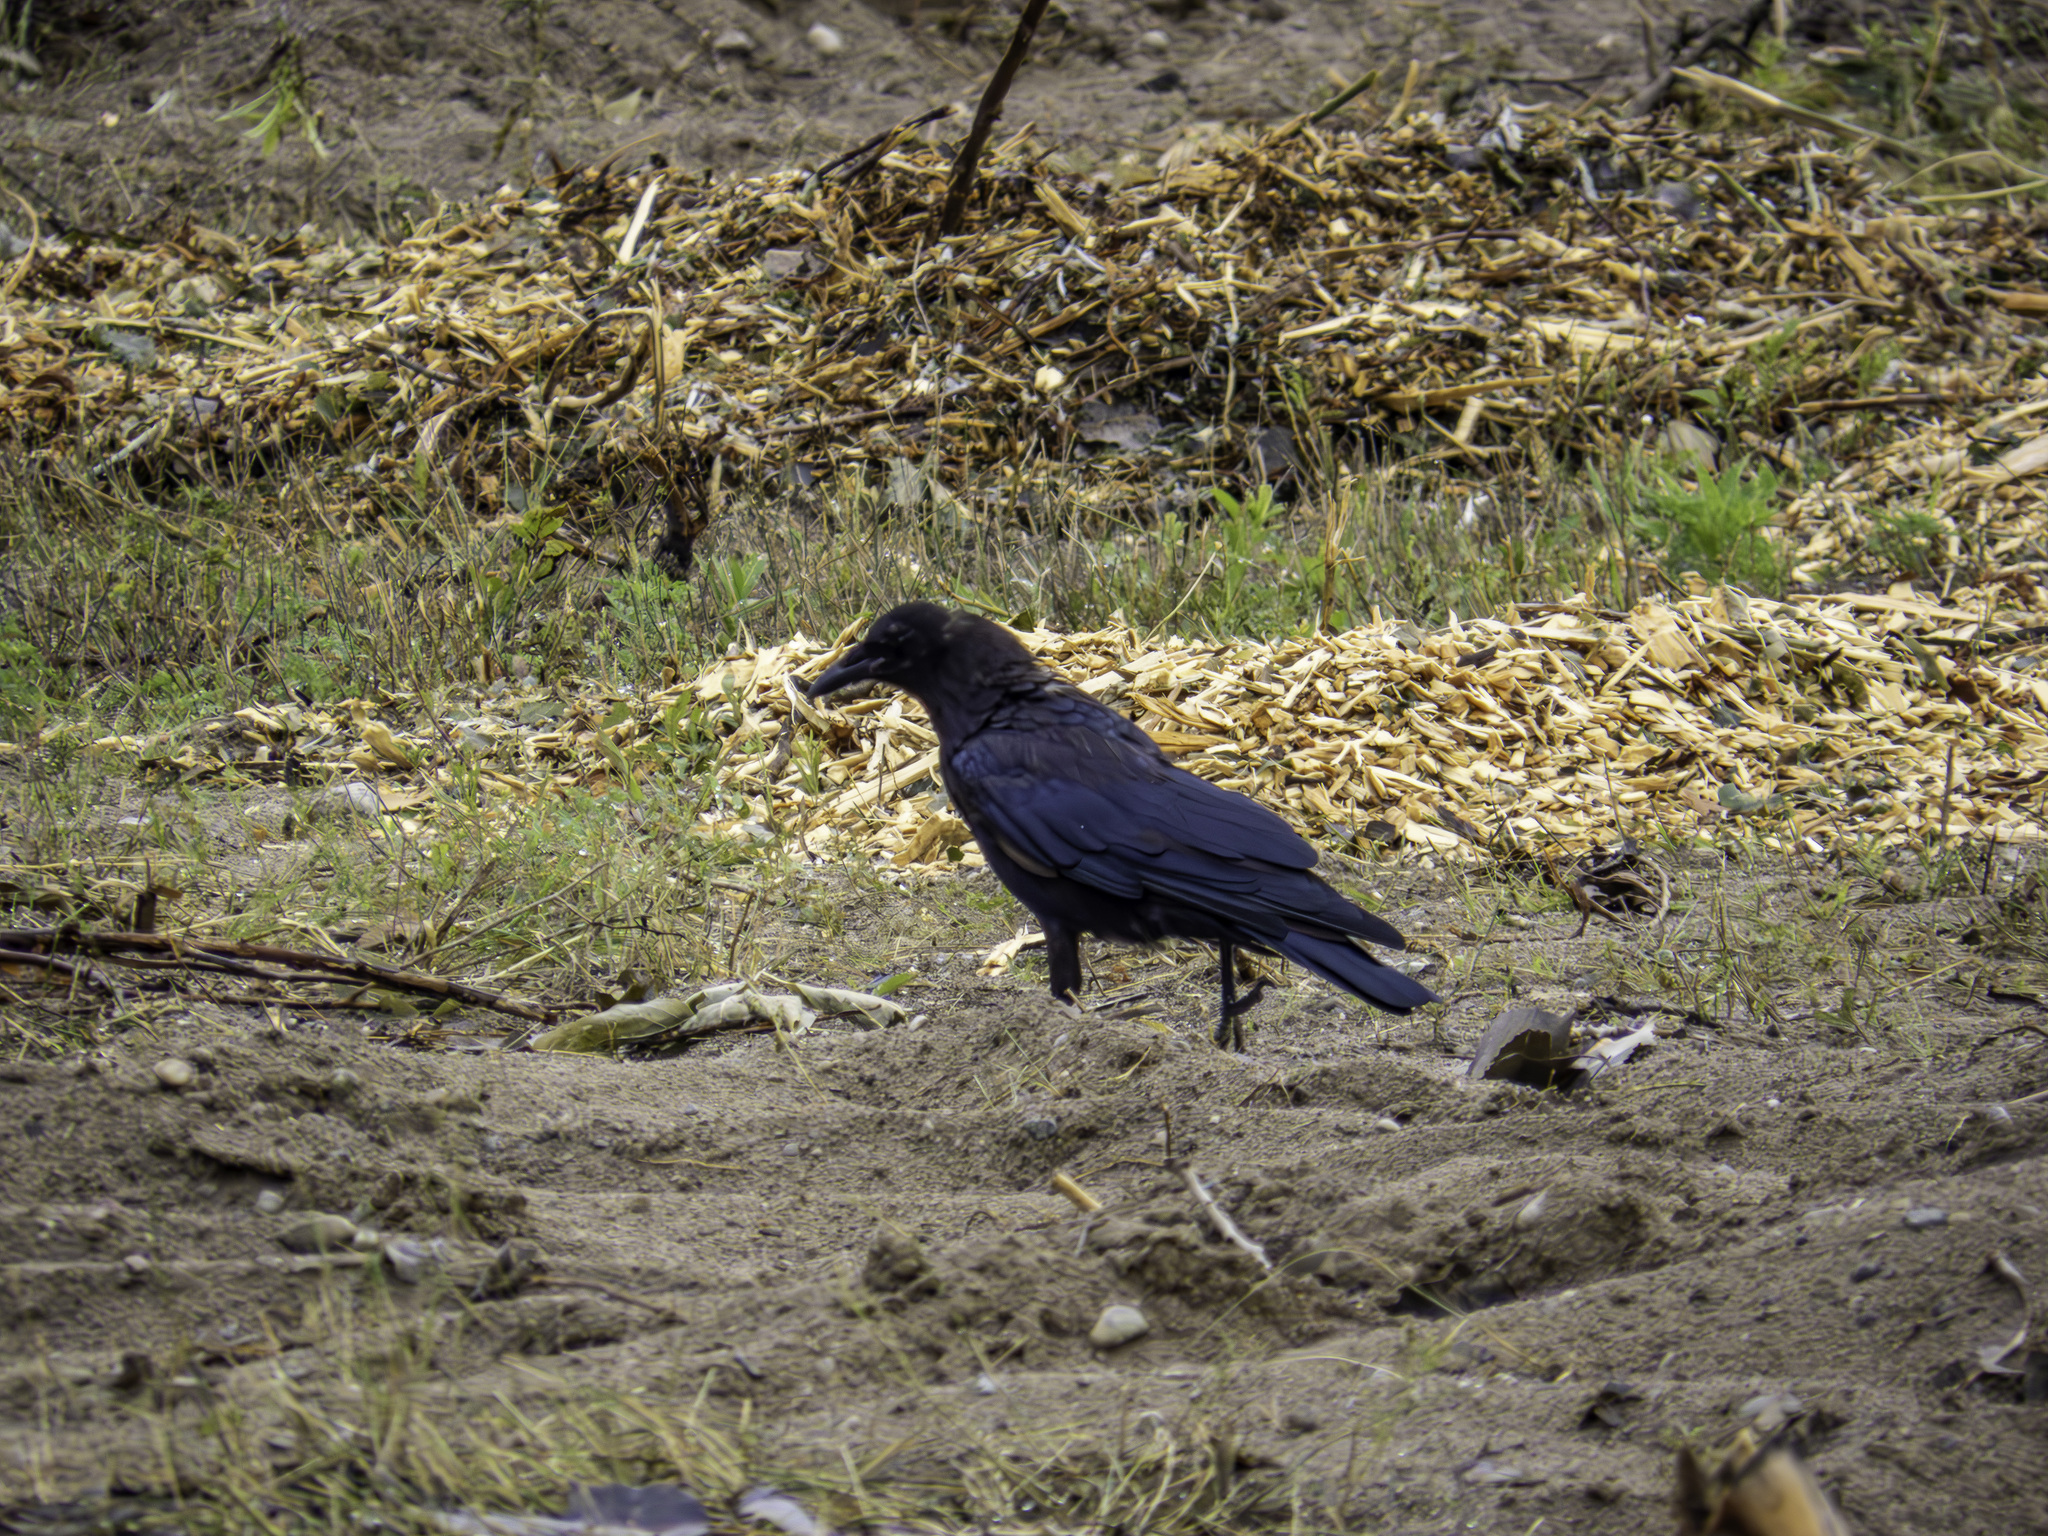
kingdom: Animalia
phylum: Chordata
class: Aves
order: Passeriformes
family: Corvidae
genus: Corvus
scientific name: Corvus brachyrhynchos
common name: American crow
